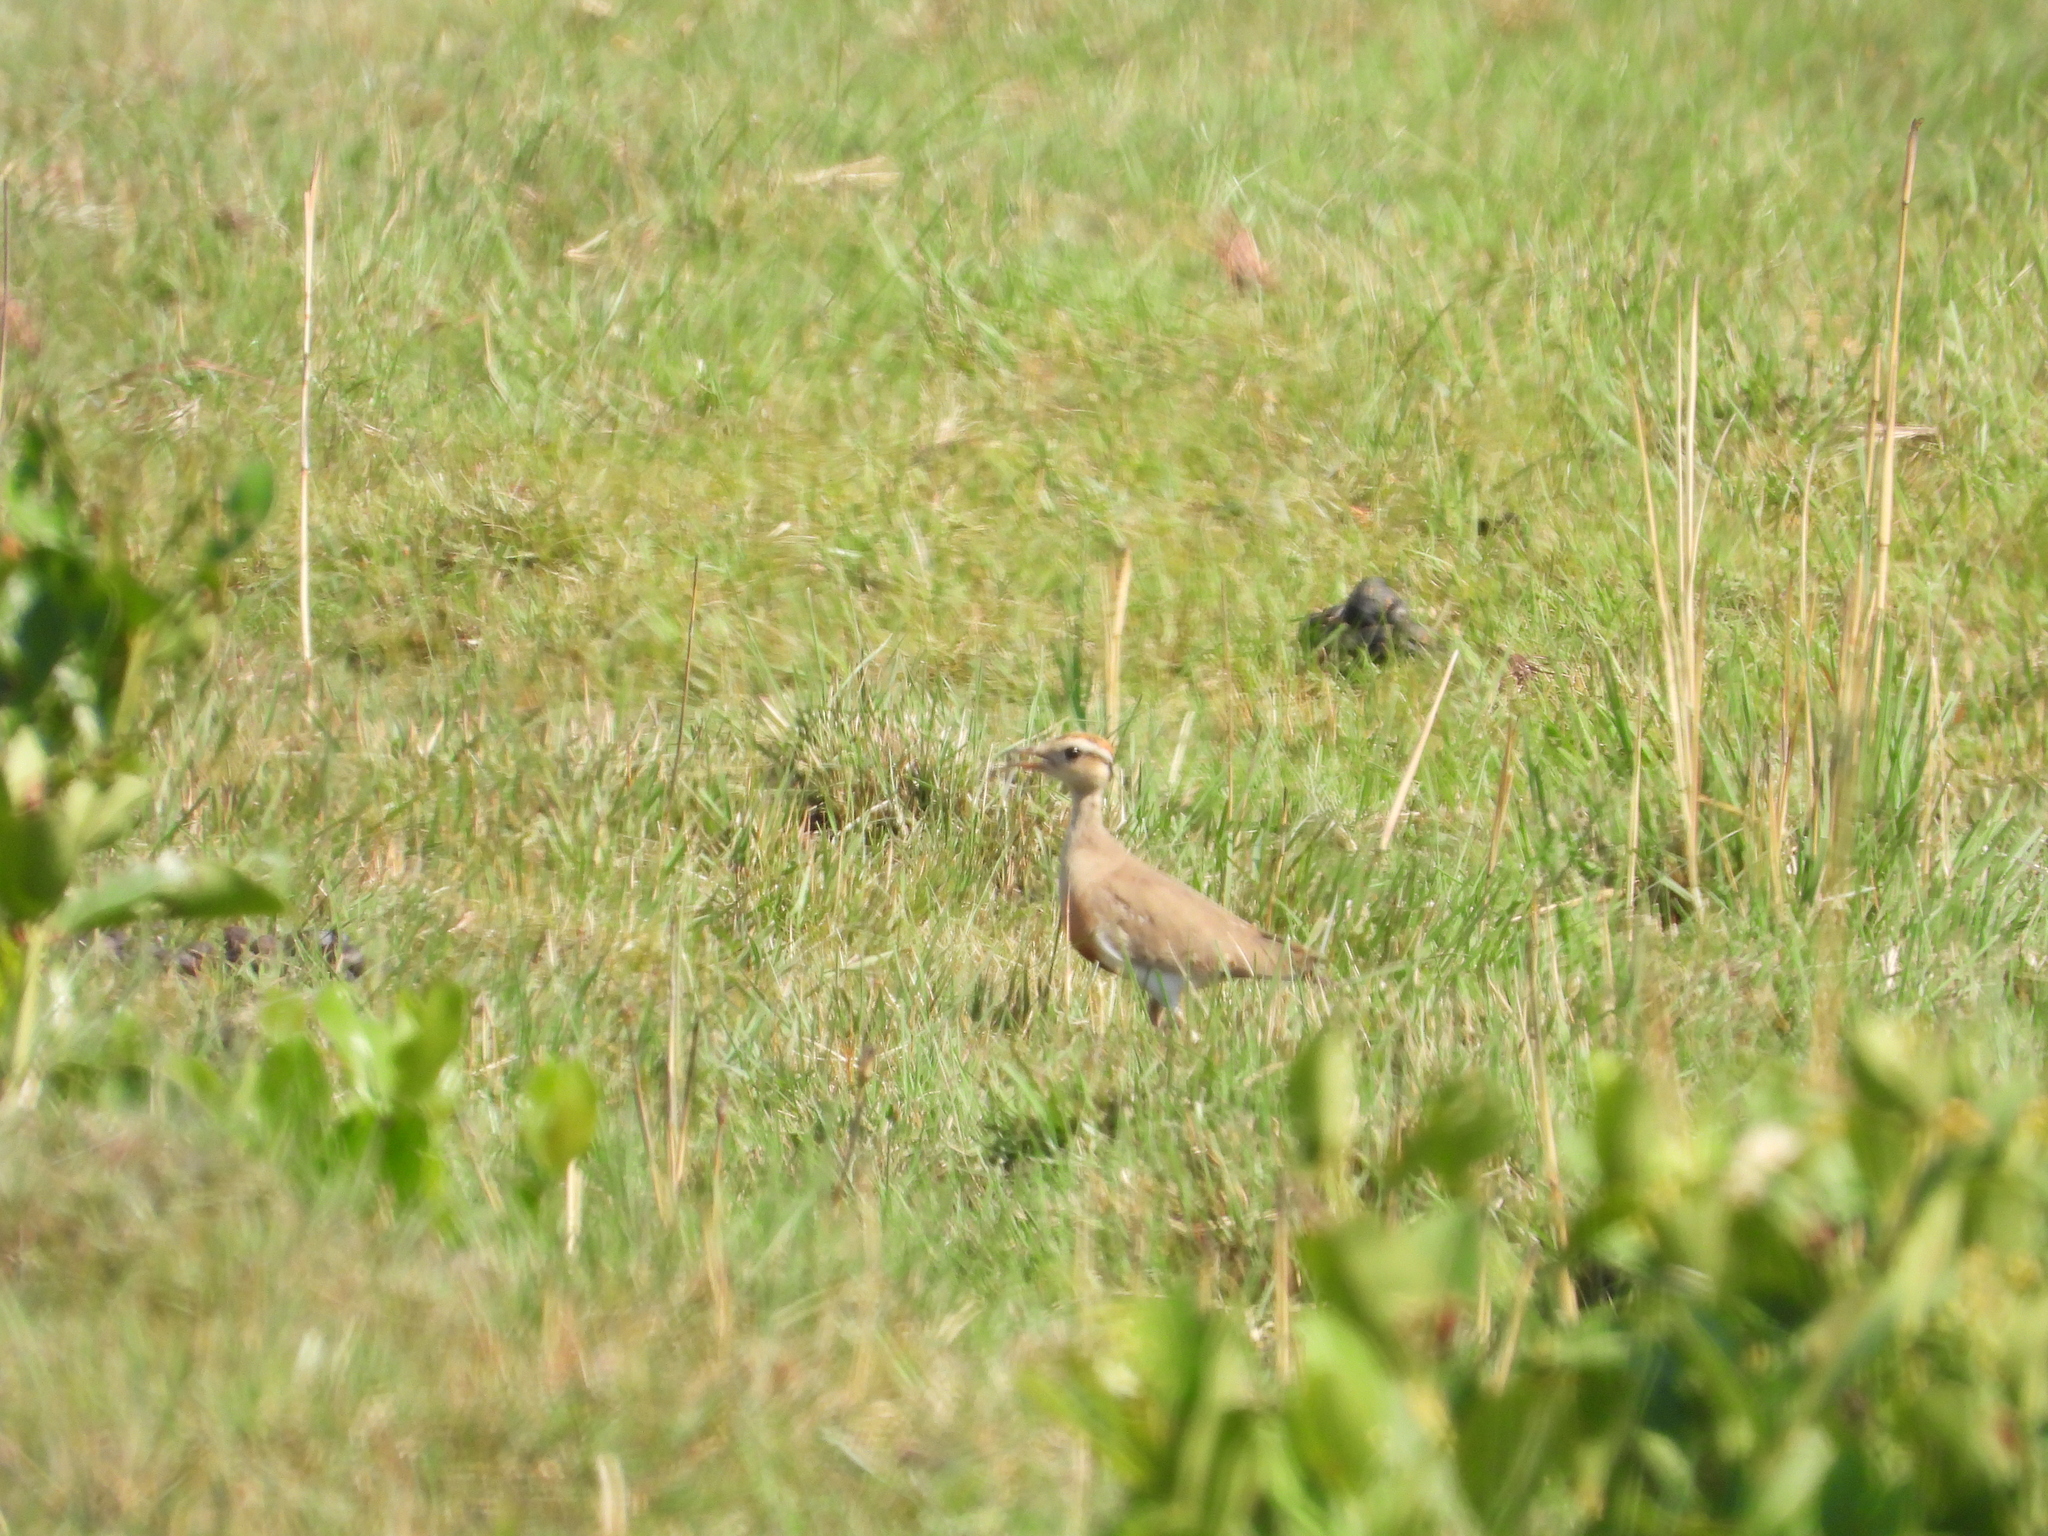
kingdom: Animalia
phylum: Chordata
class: Aves
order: Charadriiformes
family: Glareolidae
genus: Cursorius
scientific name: Cursorius temminckii
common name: Temminck's courser
